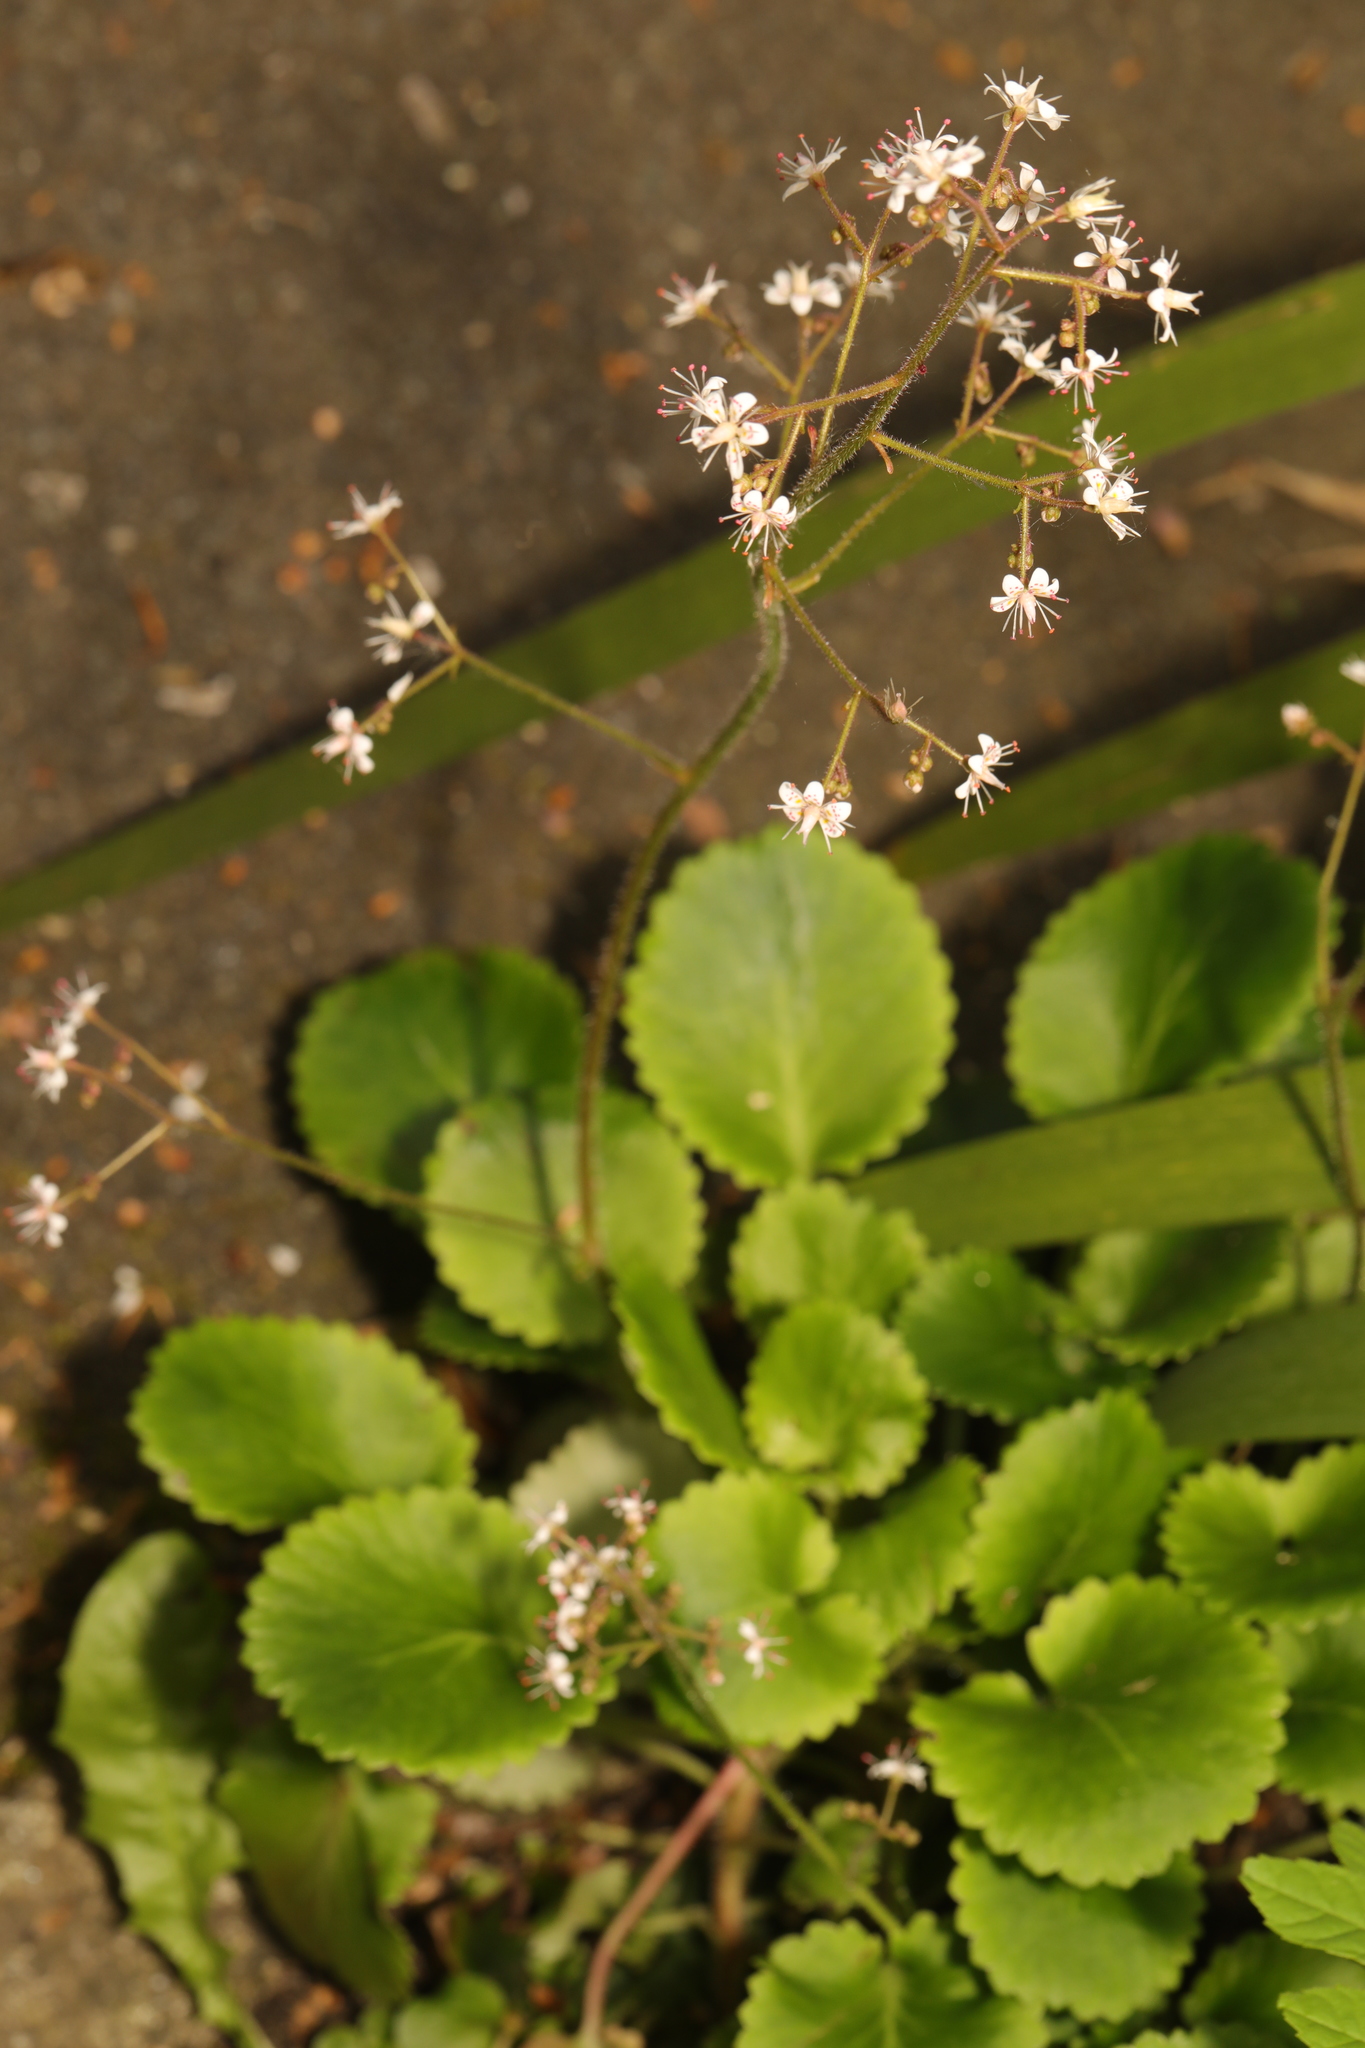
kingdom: Plantae
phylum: Tracheophyta
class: Magnoliopsida
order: Saxifragales
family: Saxifragaceae
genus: Saxifraga
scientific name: Saxifraga urbium
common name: Londonpride
